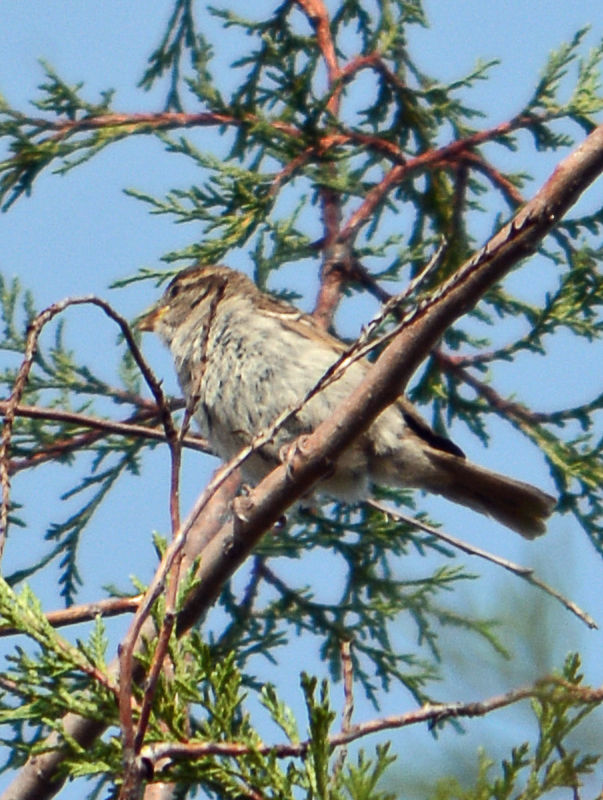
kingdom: Animalia
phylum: Chordata
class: Aves
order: Passeriformes
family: Passeridae
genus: Passer
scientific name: Passer domesticus
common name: House sparrow
